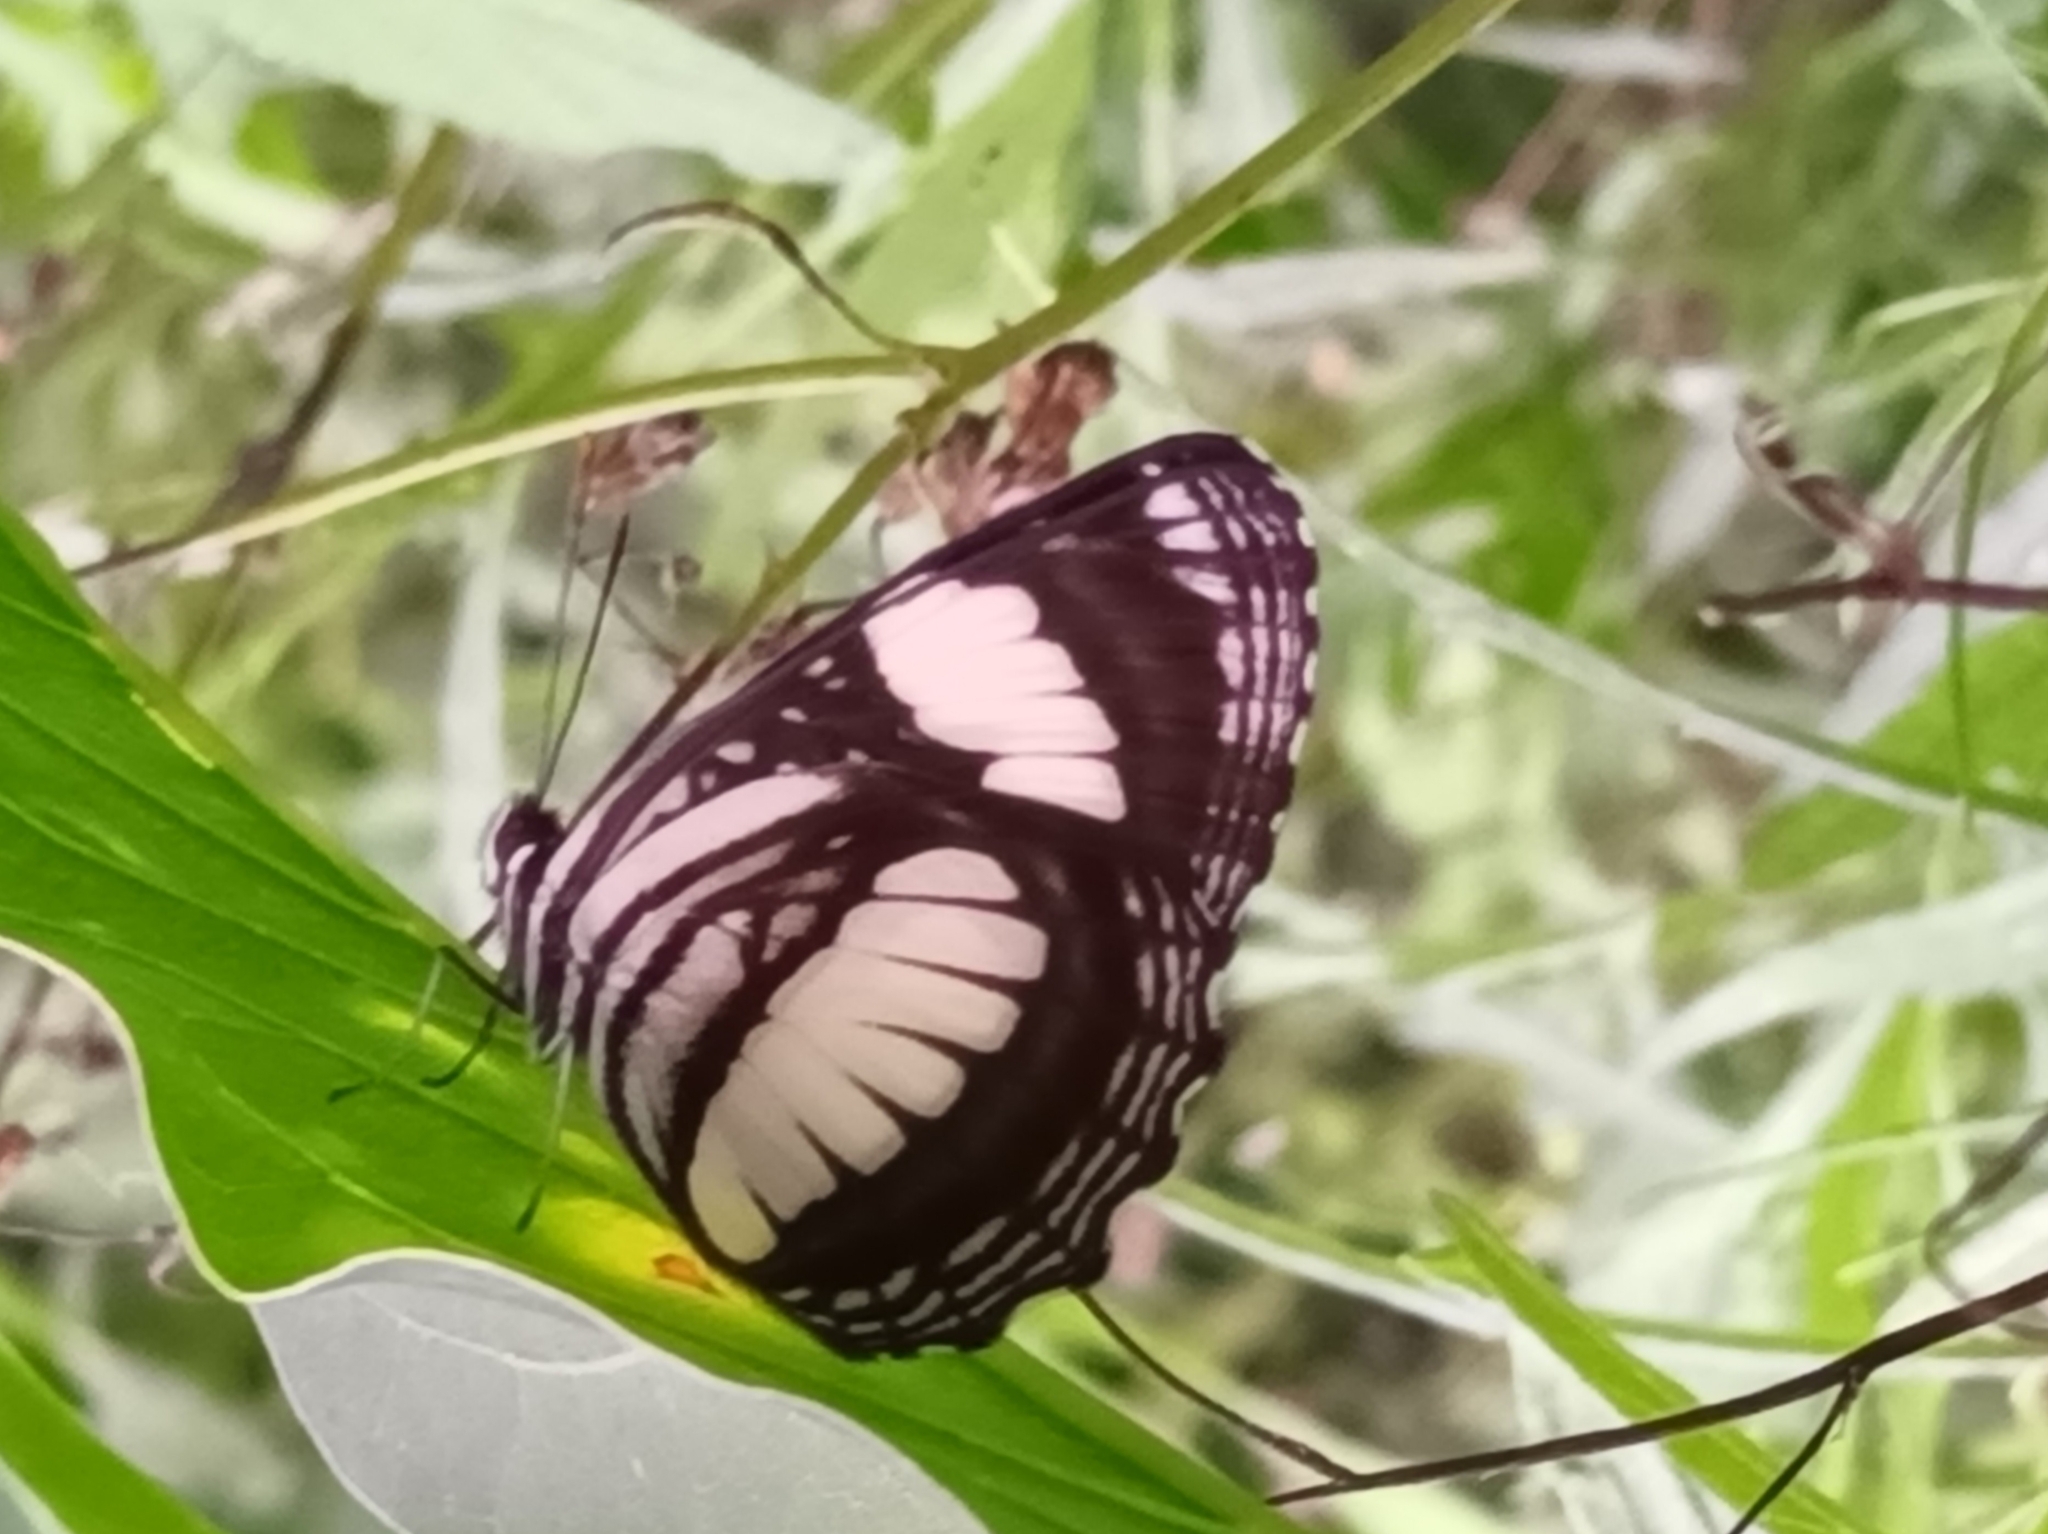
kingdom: Animalia
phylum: Arthropoda
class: Insecta
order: Lepidoptera
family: Nymphalidae
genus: Neptis
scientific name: Neptis laeta
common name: Common barred sailor
